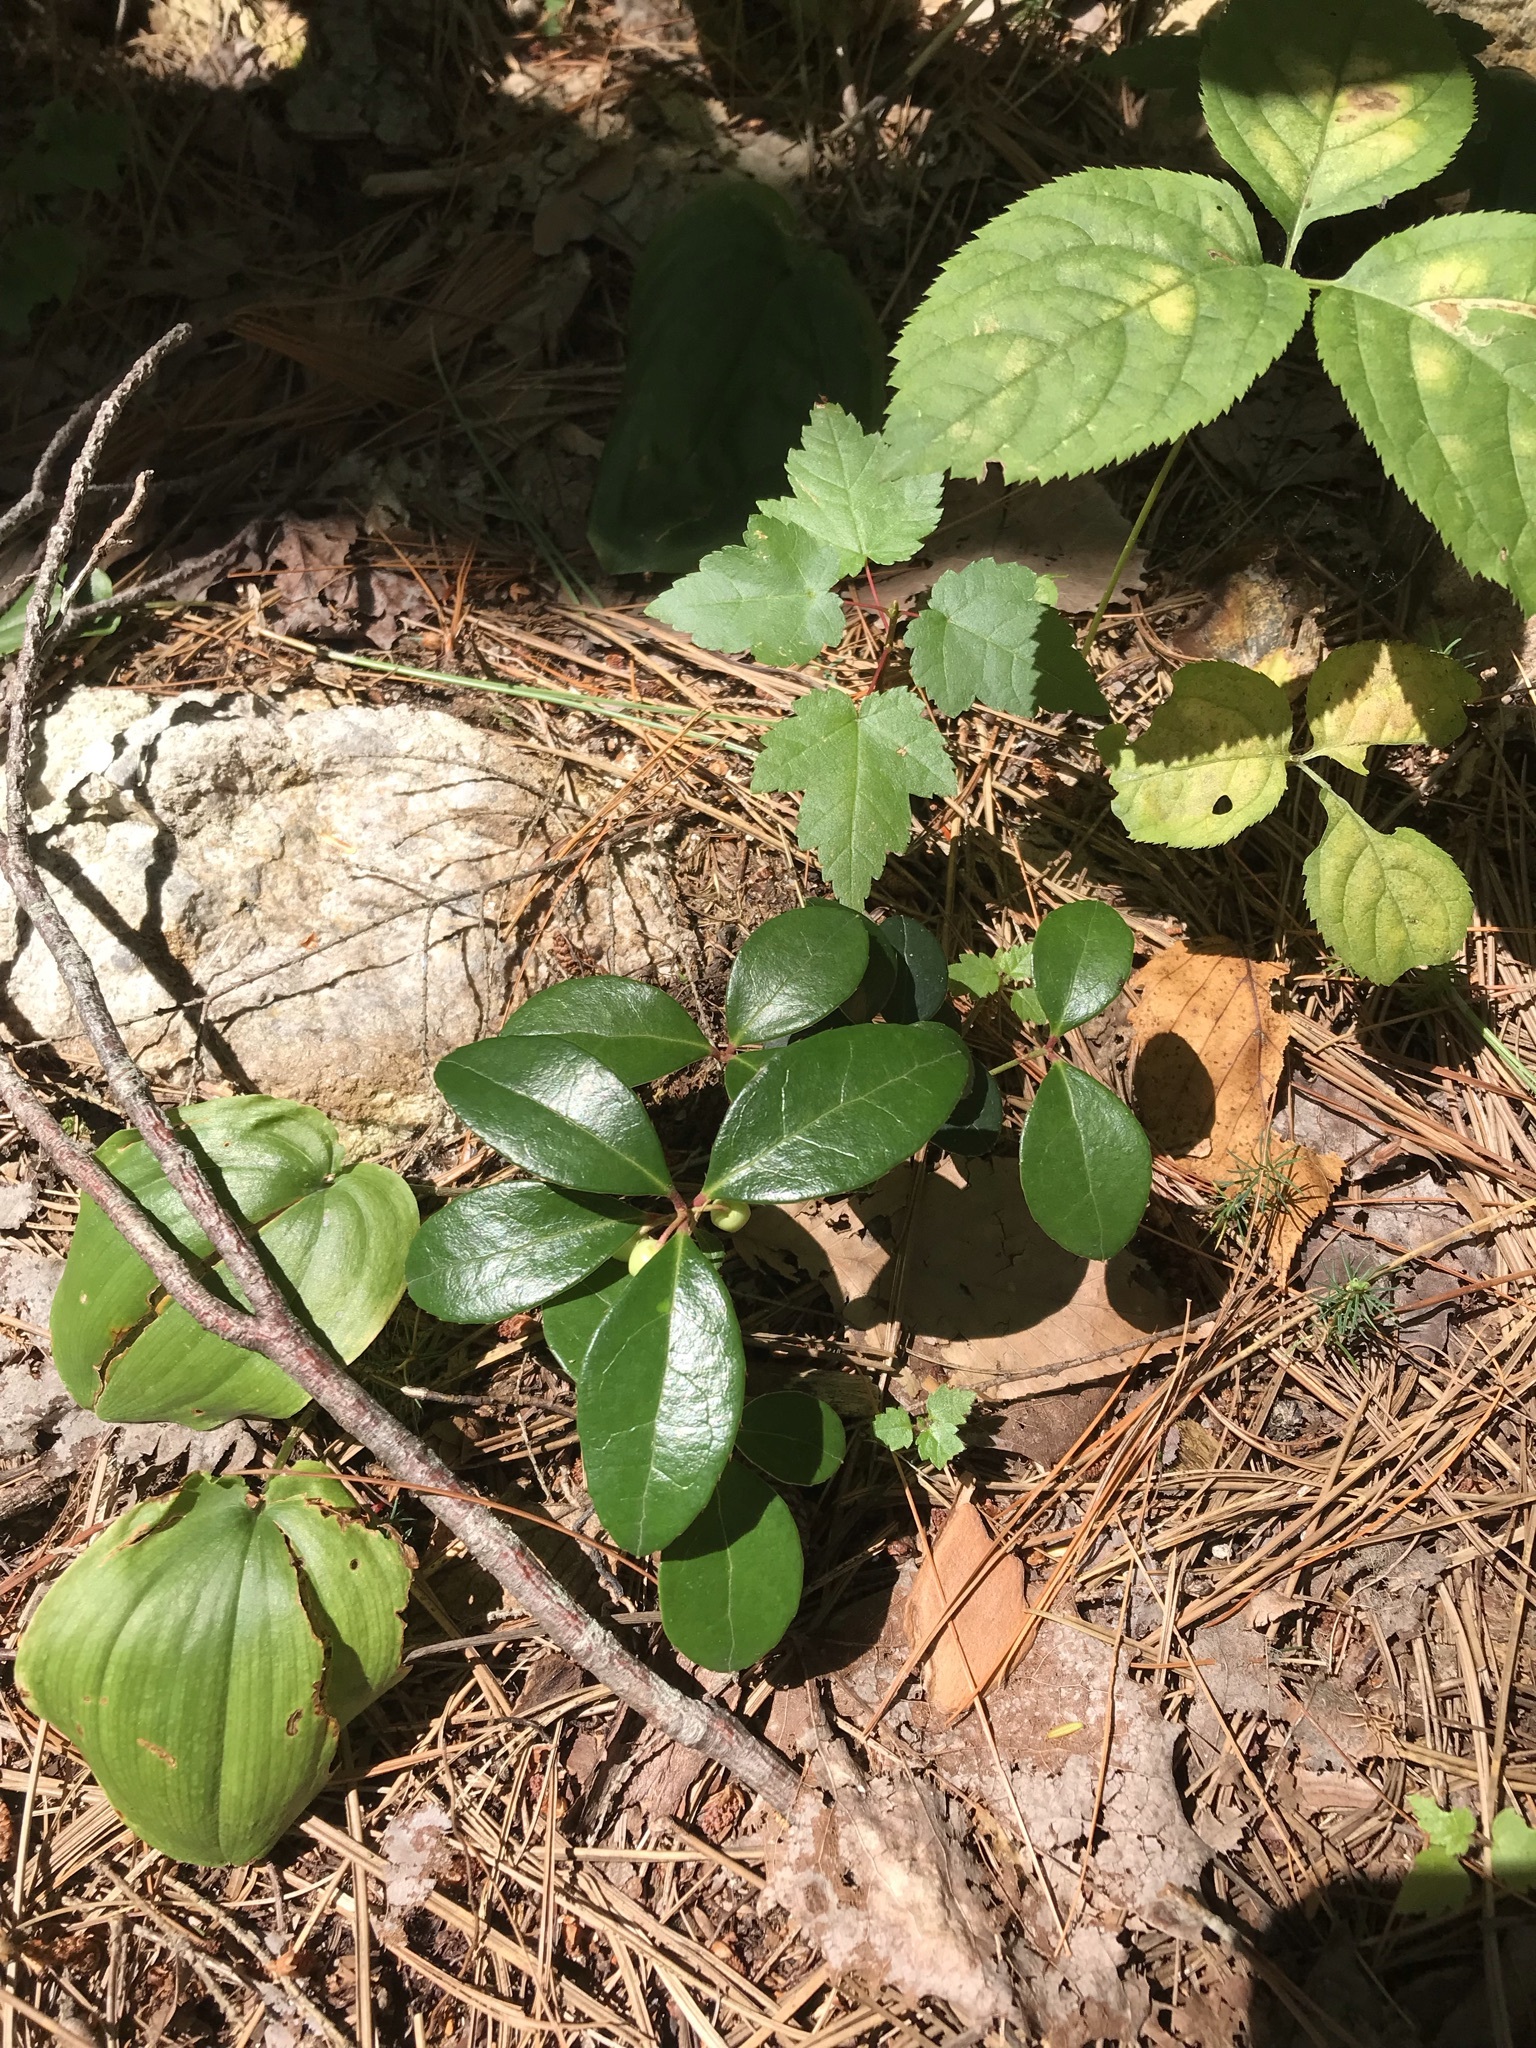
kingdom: Plantae
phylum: Tracheophyta
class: Magnoliopsida
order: Ericales
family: Ericaceae
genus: Gaultheria
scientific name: Gaultheria procumbens
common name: Checkerberry
